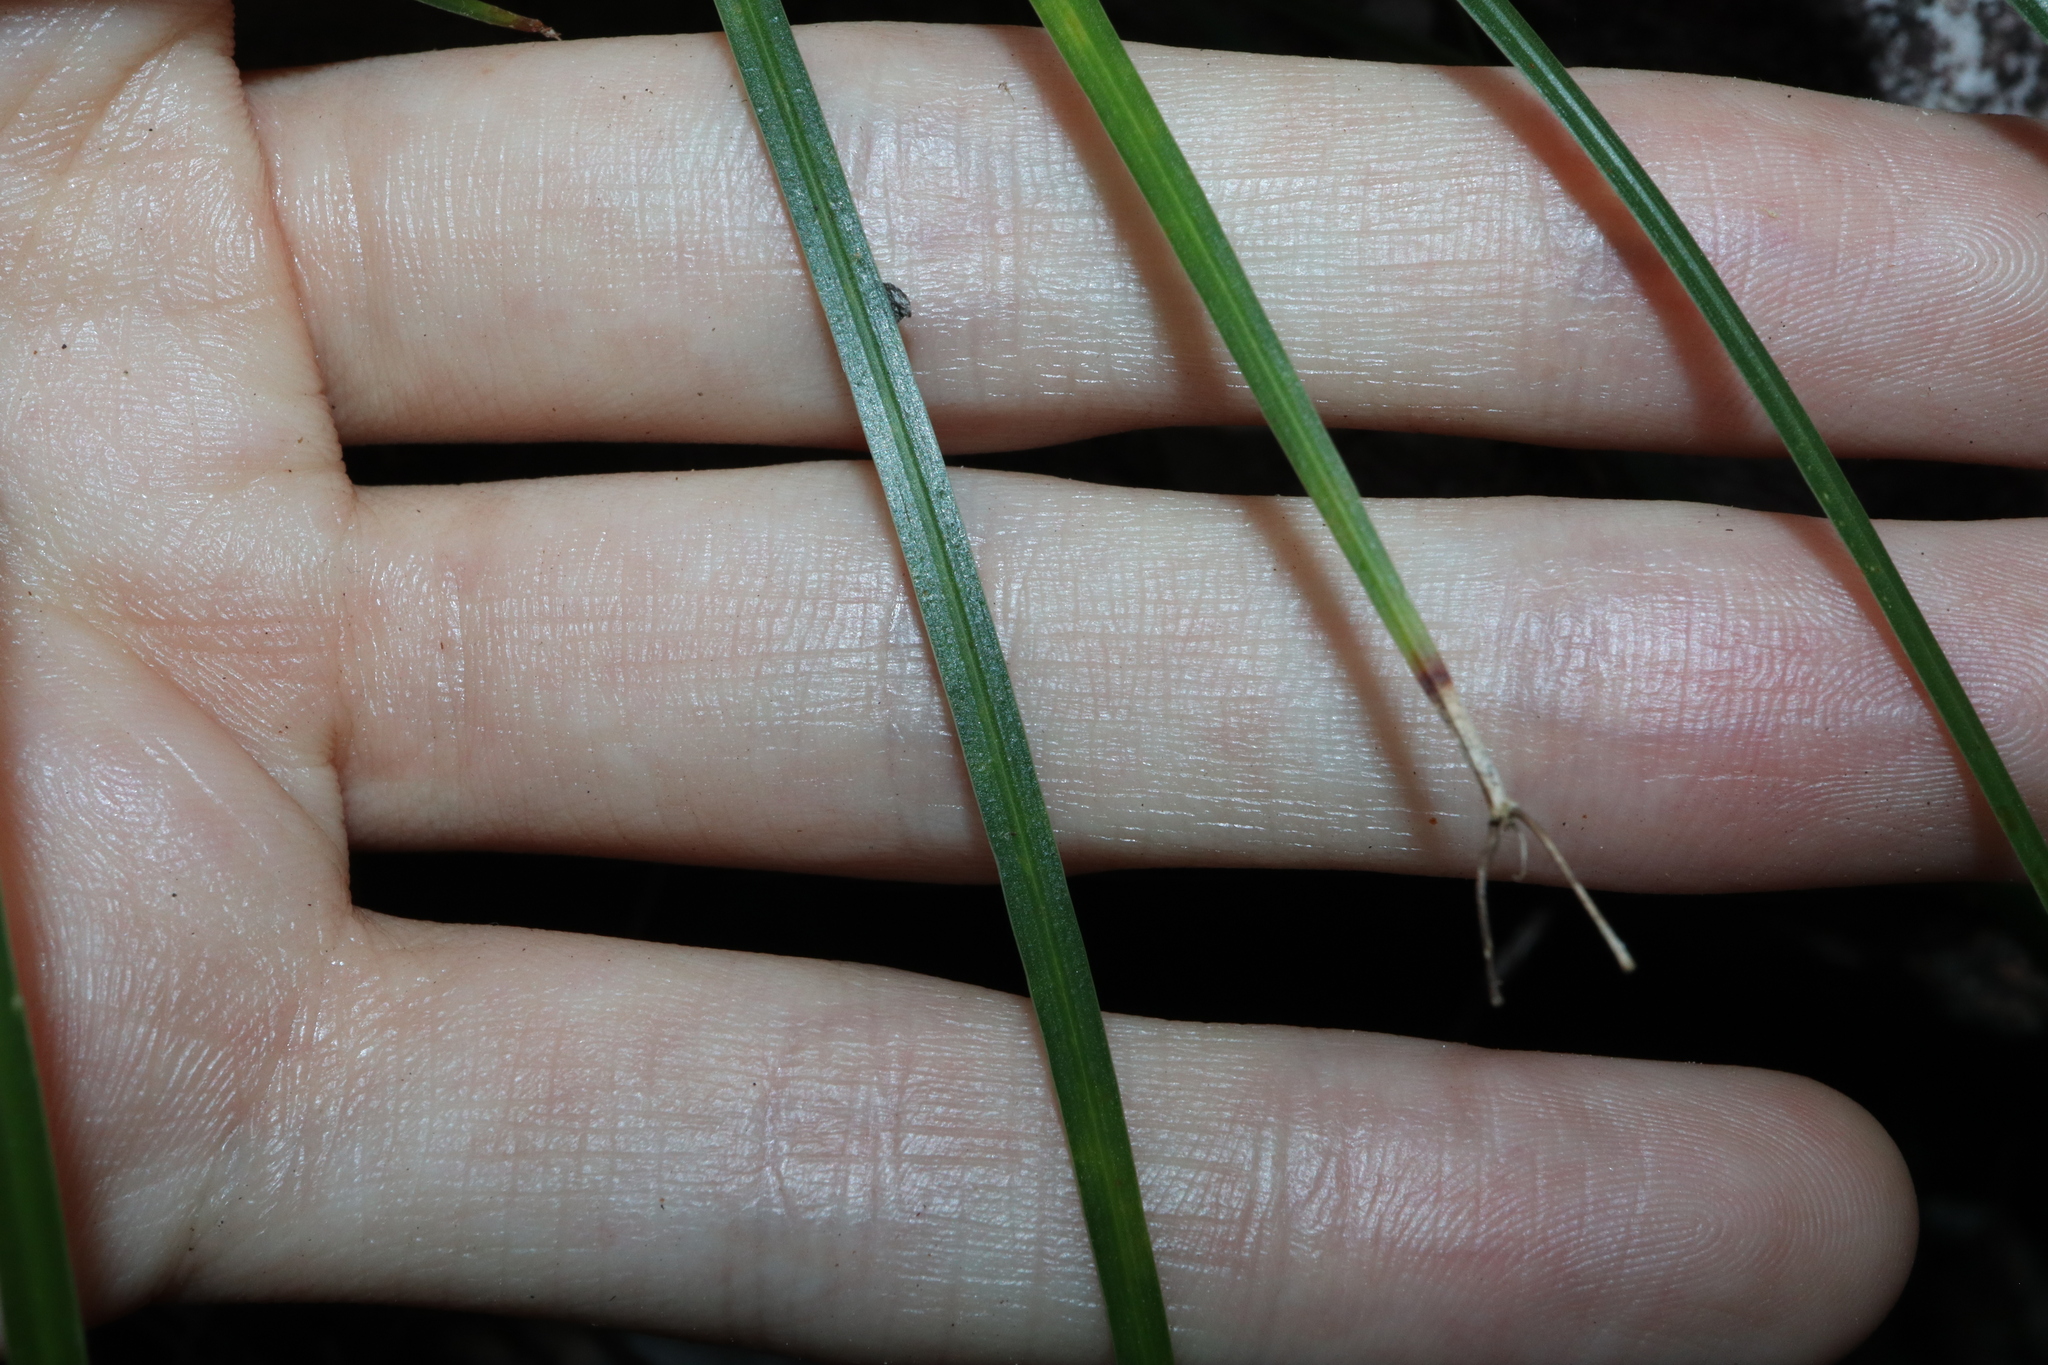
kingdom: Plantae
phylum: Tracheophyta
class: Liliopsida
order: Asparagales
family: Asphodelaceae
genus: Tricoryne
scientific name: Tricoryne anceps
